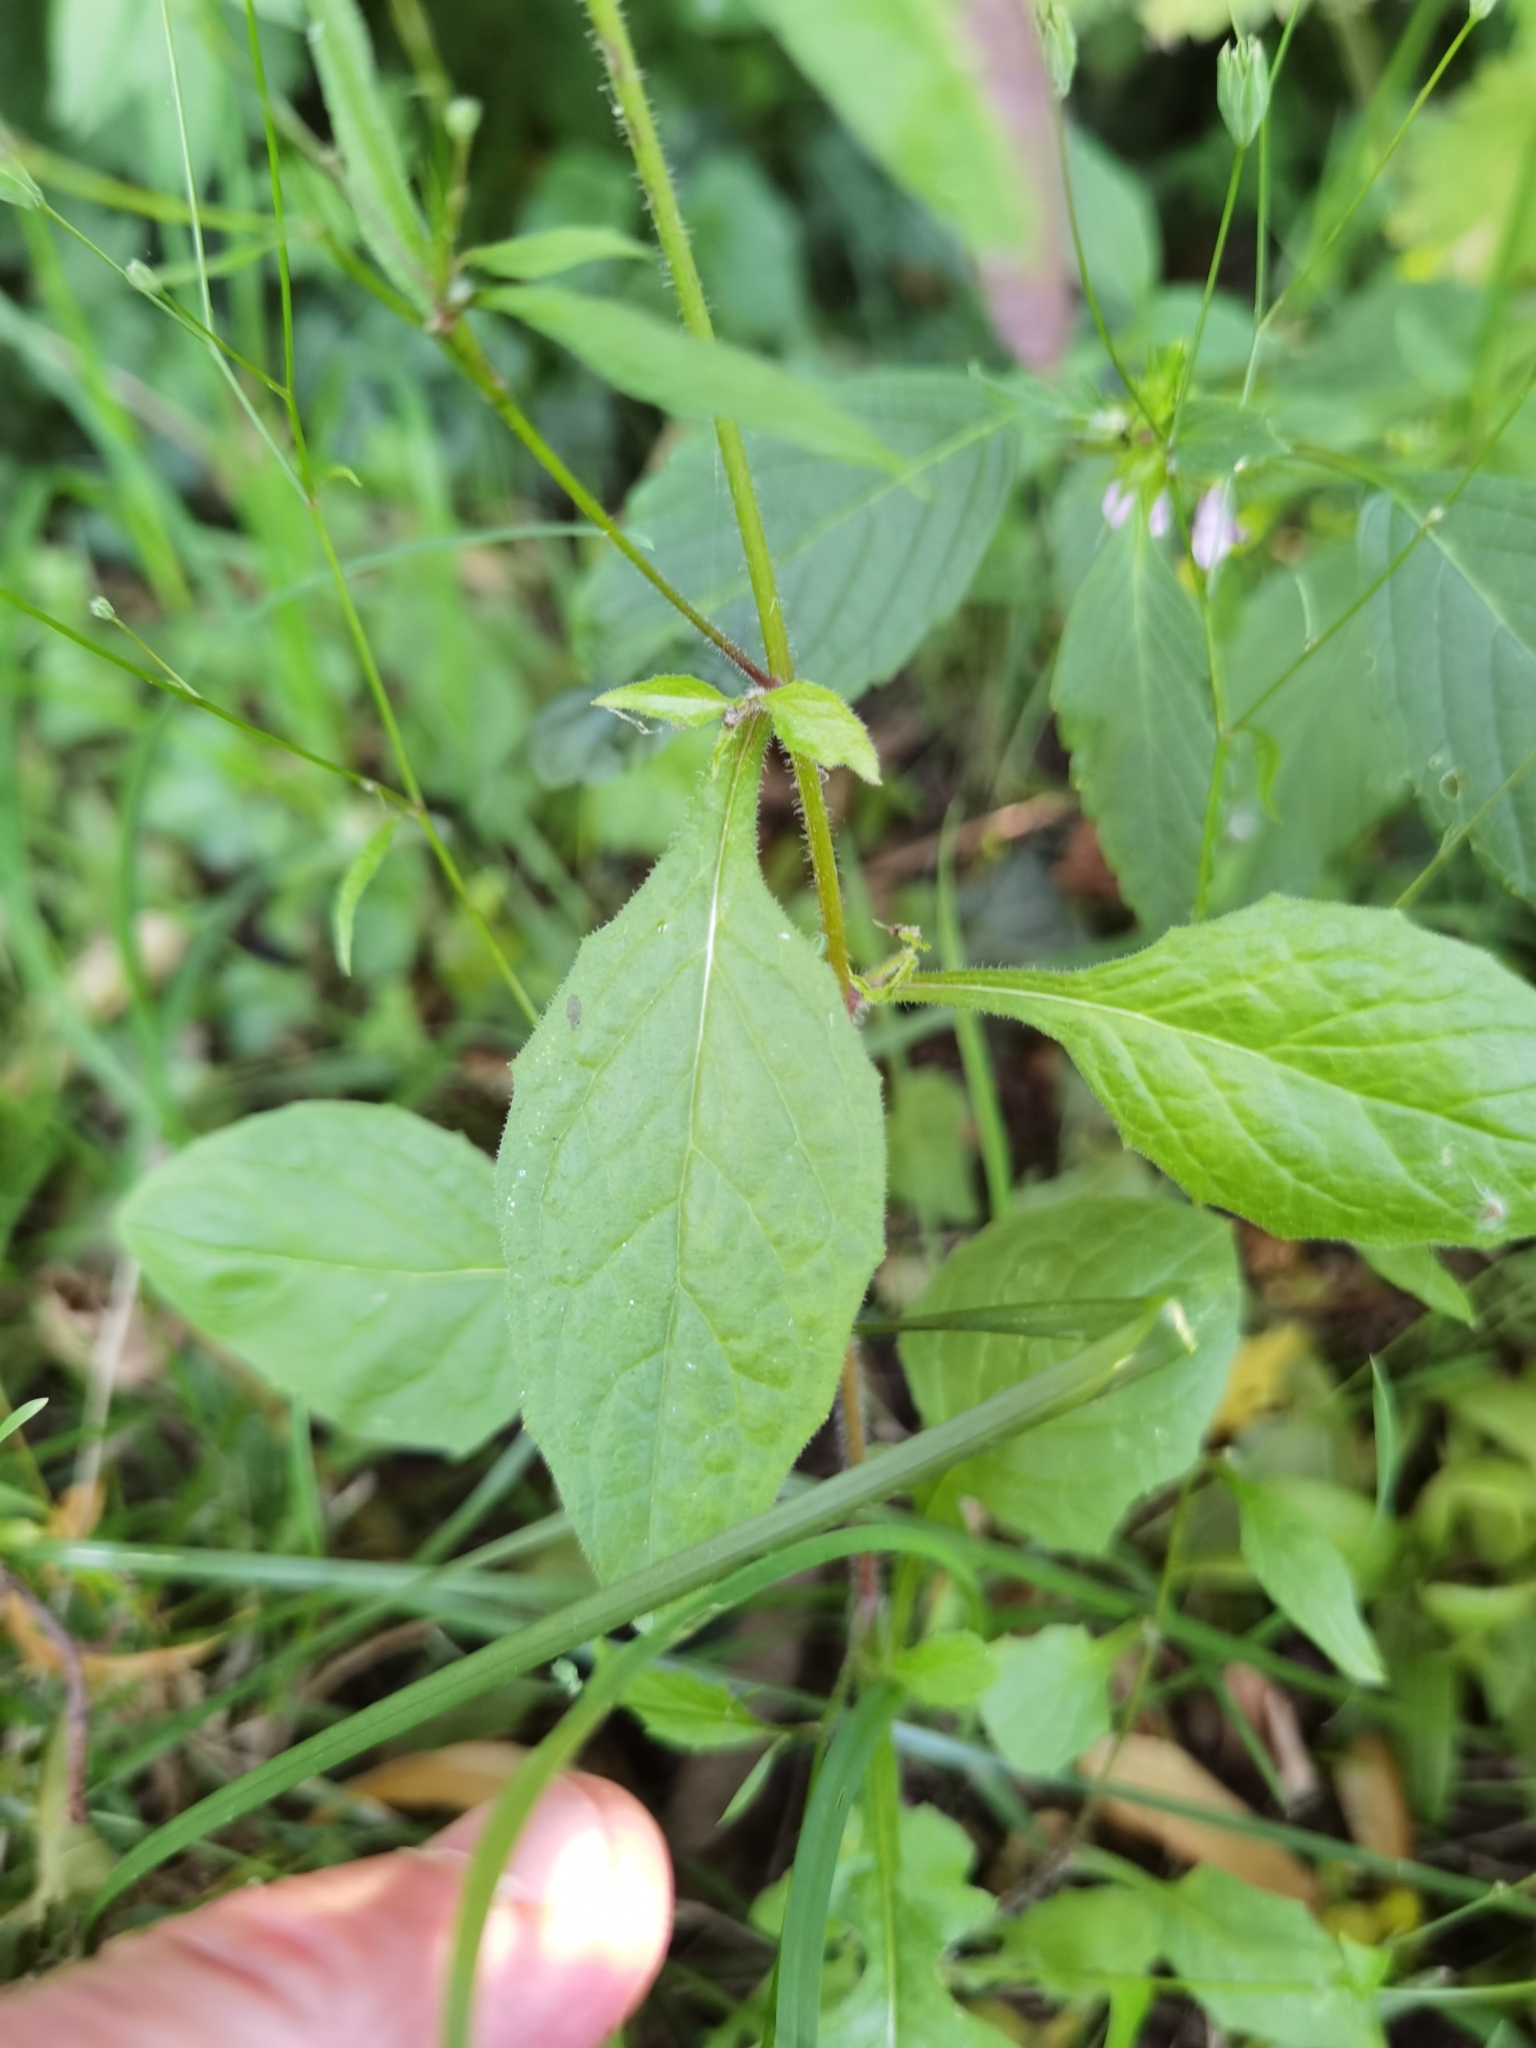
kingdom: Plantae
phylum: Tracheophyta
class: Magnoliopsida
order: Asterales
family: Asteraceae
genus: Lapsana
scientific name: Lapsana communis
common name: Nipplewort
